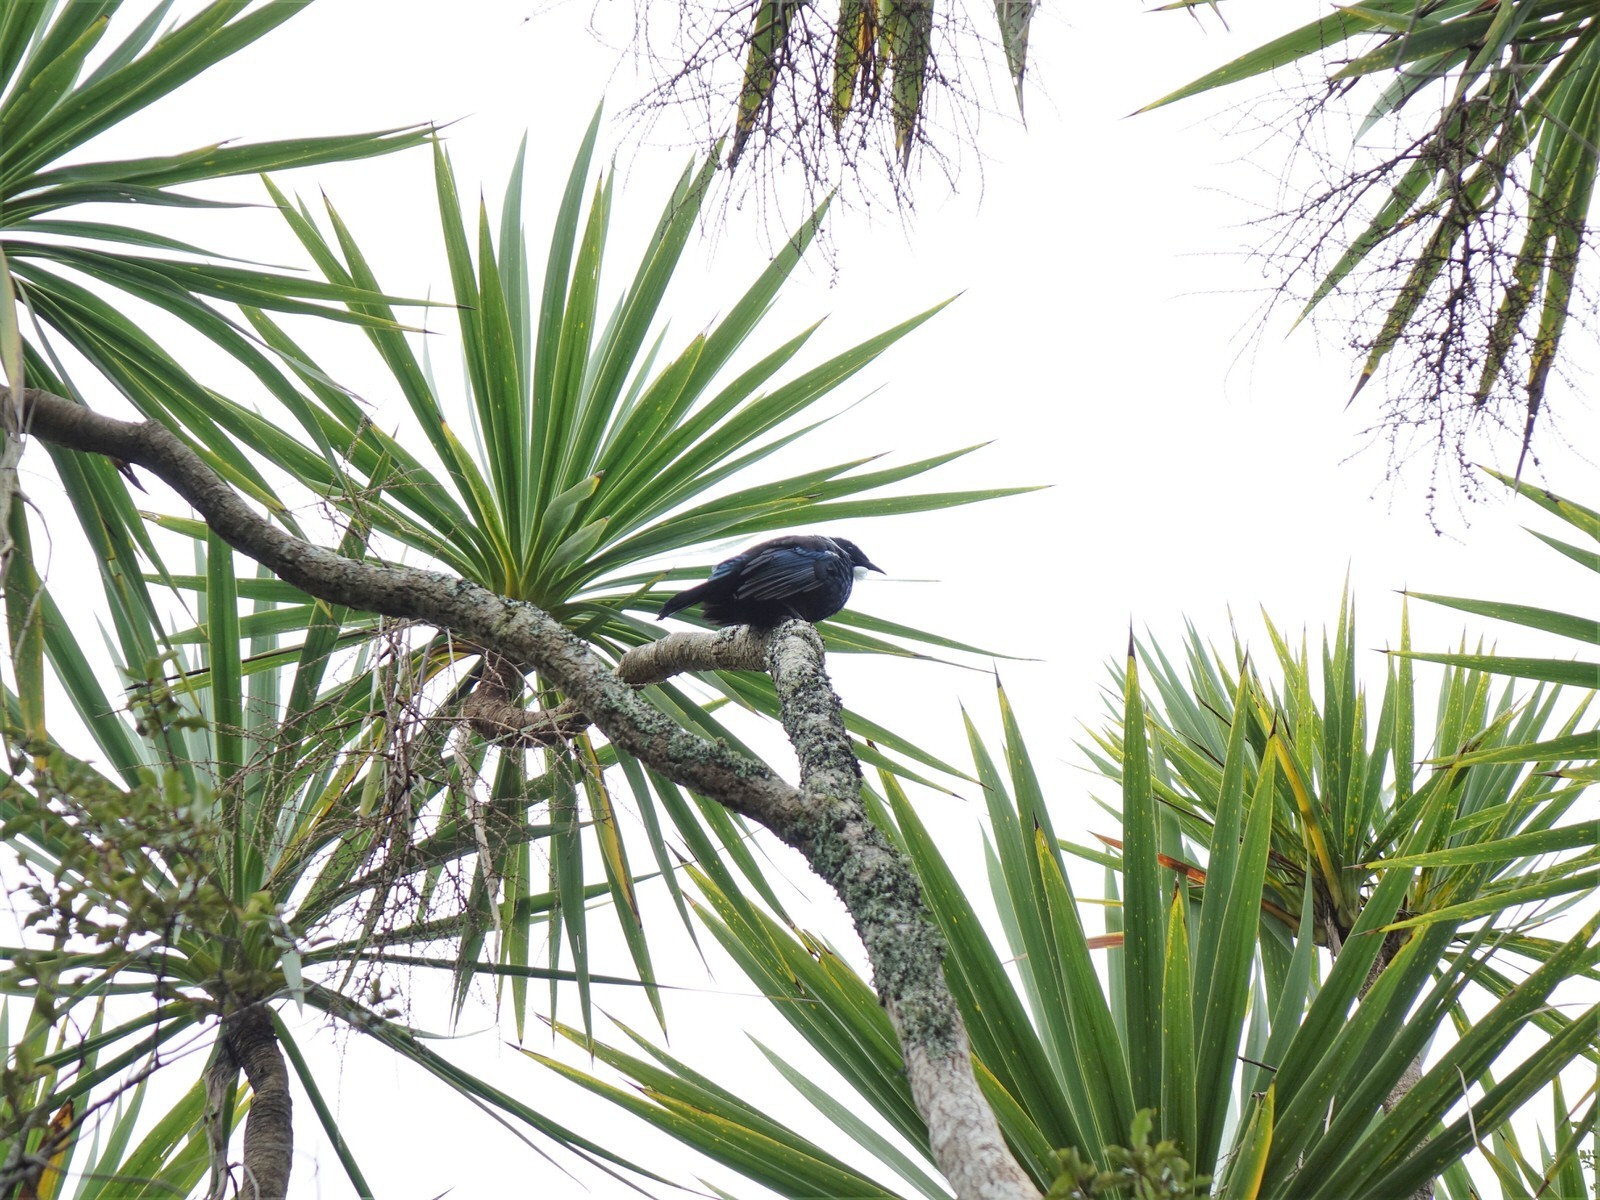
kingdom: Animalia
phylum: Chordata
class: Aves
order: Passeriformes
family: Meliphagidae
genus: Prosthemadera
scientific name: Prosthemadera novaeseelandiae
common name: Tui
